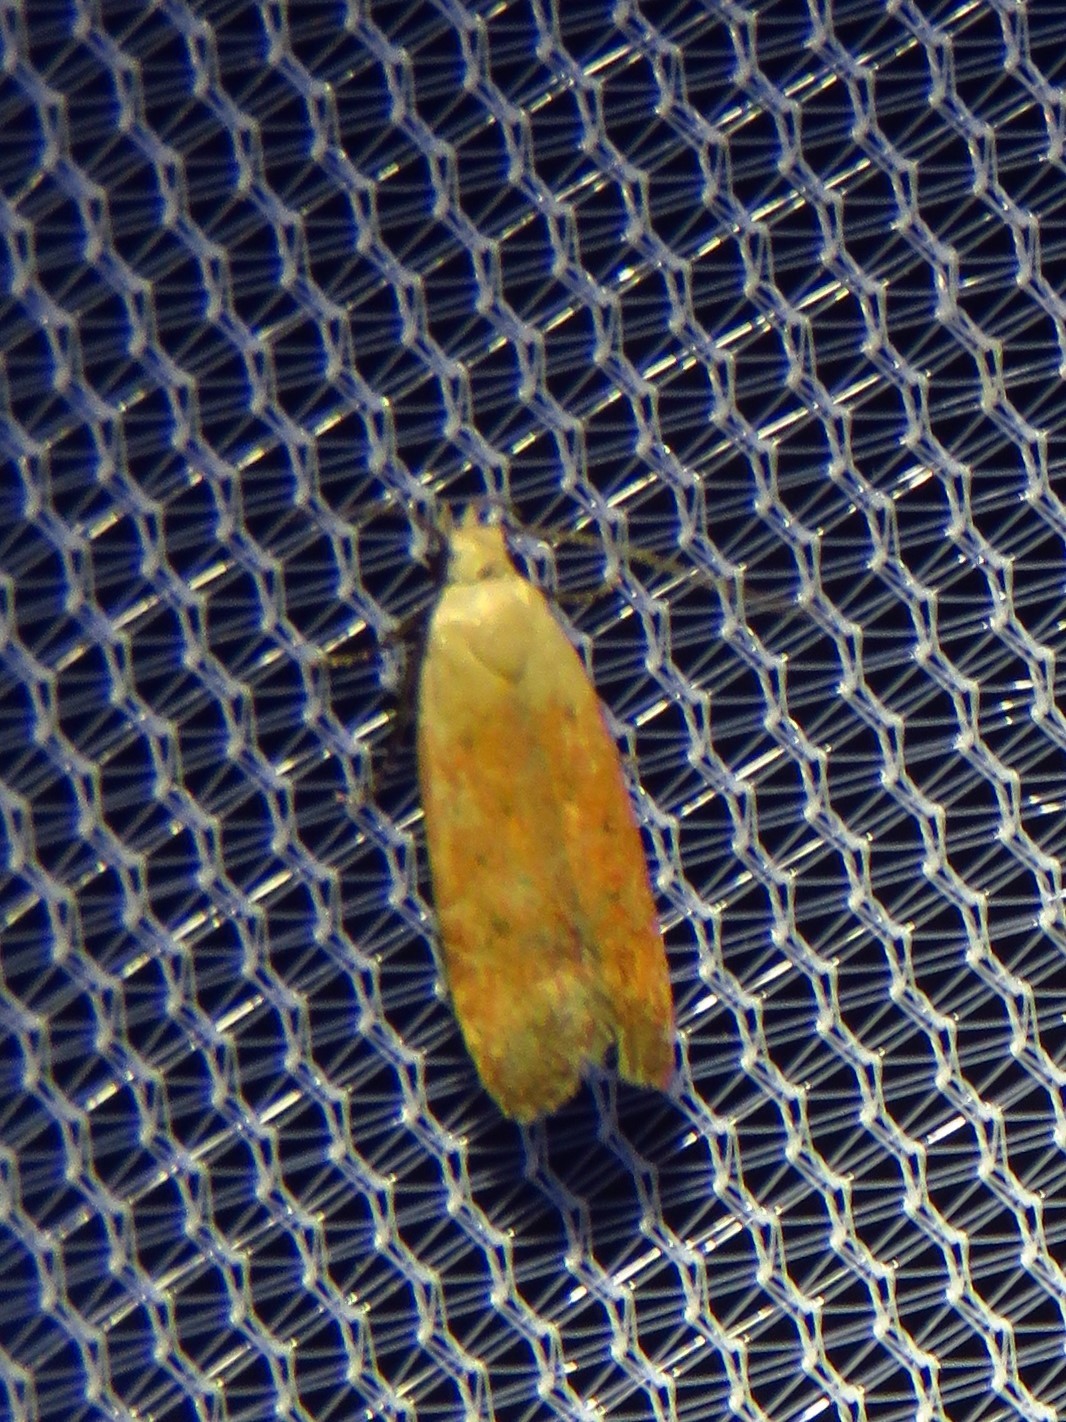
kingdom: Animalia
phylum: Arthropoda
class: Insecta
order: Lepidoptera
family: Gelechiidae
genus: Anacampsis
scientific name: Anacampsis fullonella
